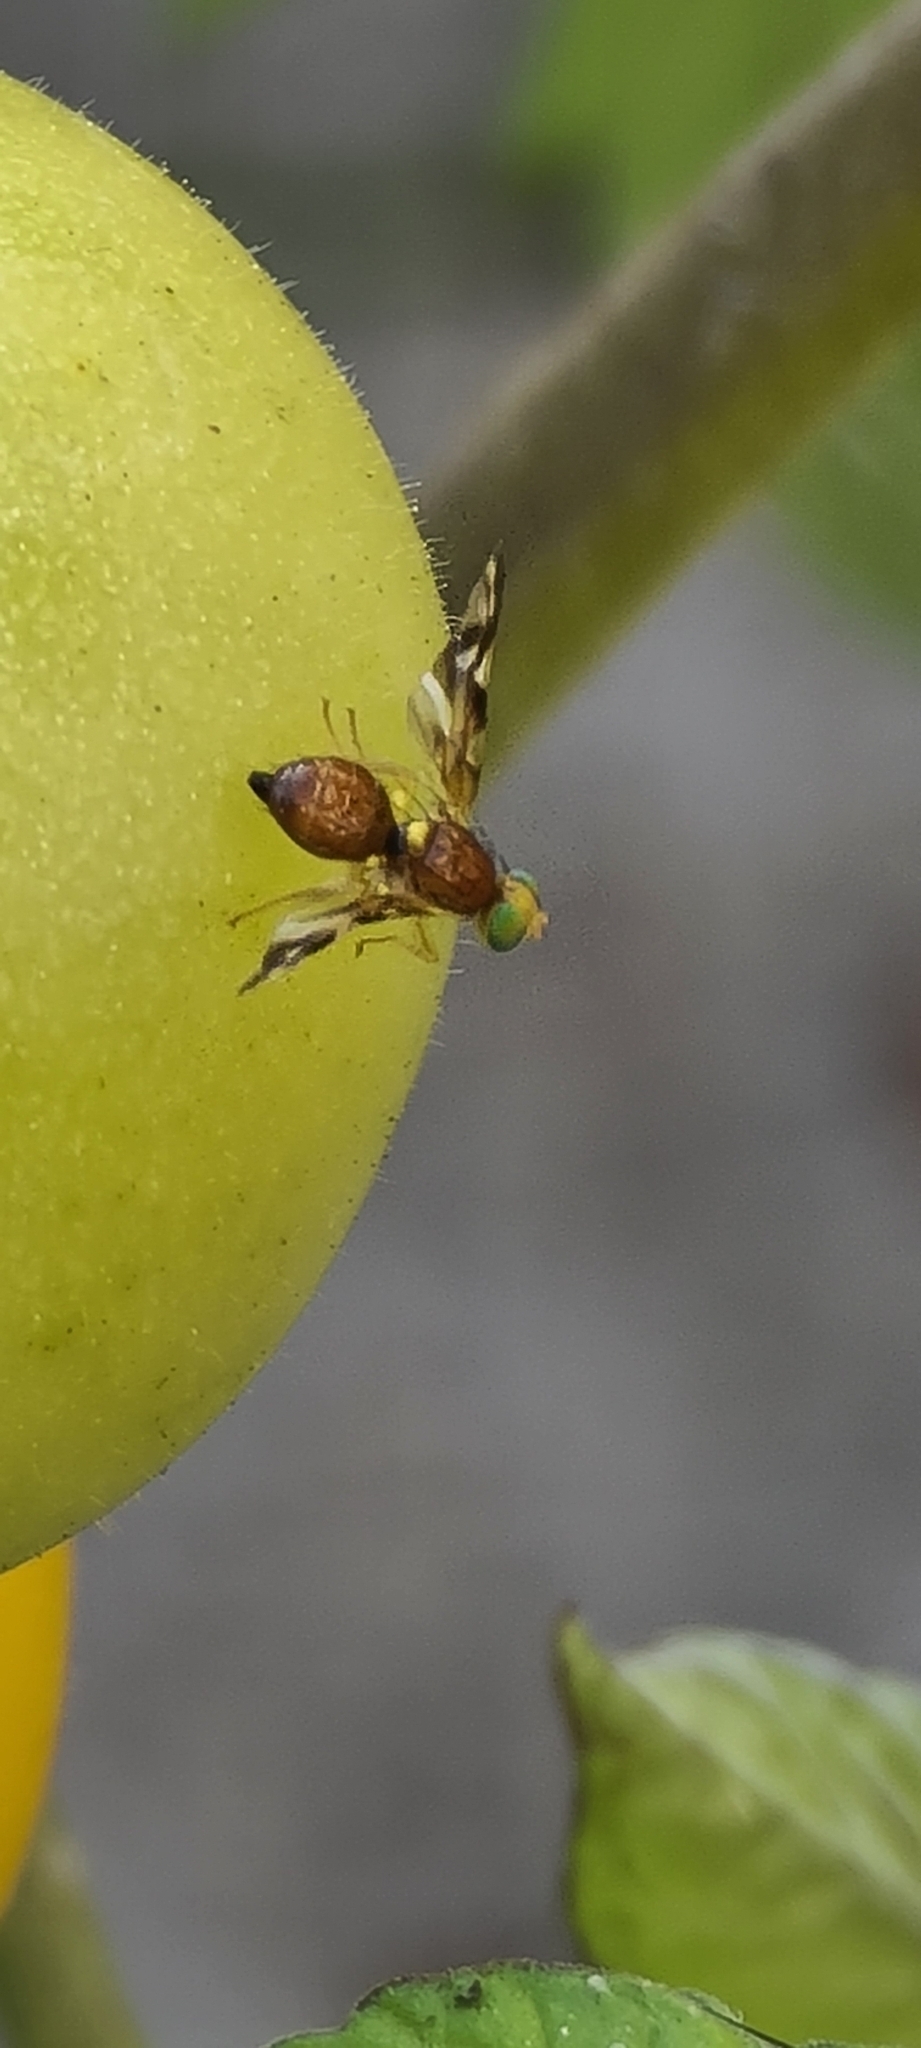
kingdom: Animalia
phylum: Arthropoda
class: Insecta
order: Diptera
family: Tephritidae
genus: Euleia
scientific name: Euleia heraclei
